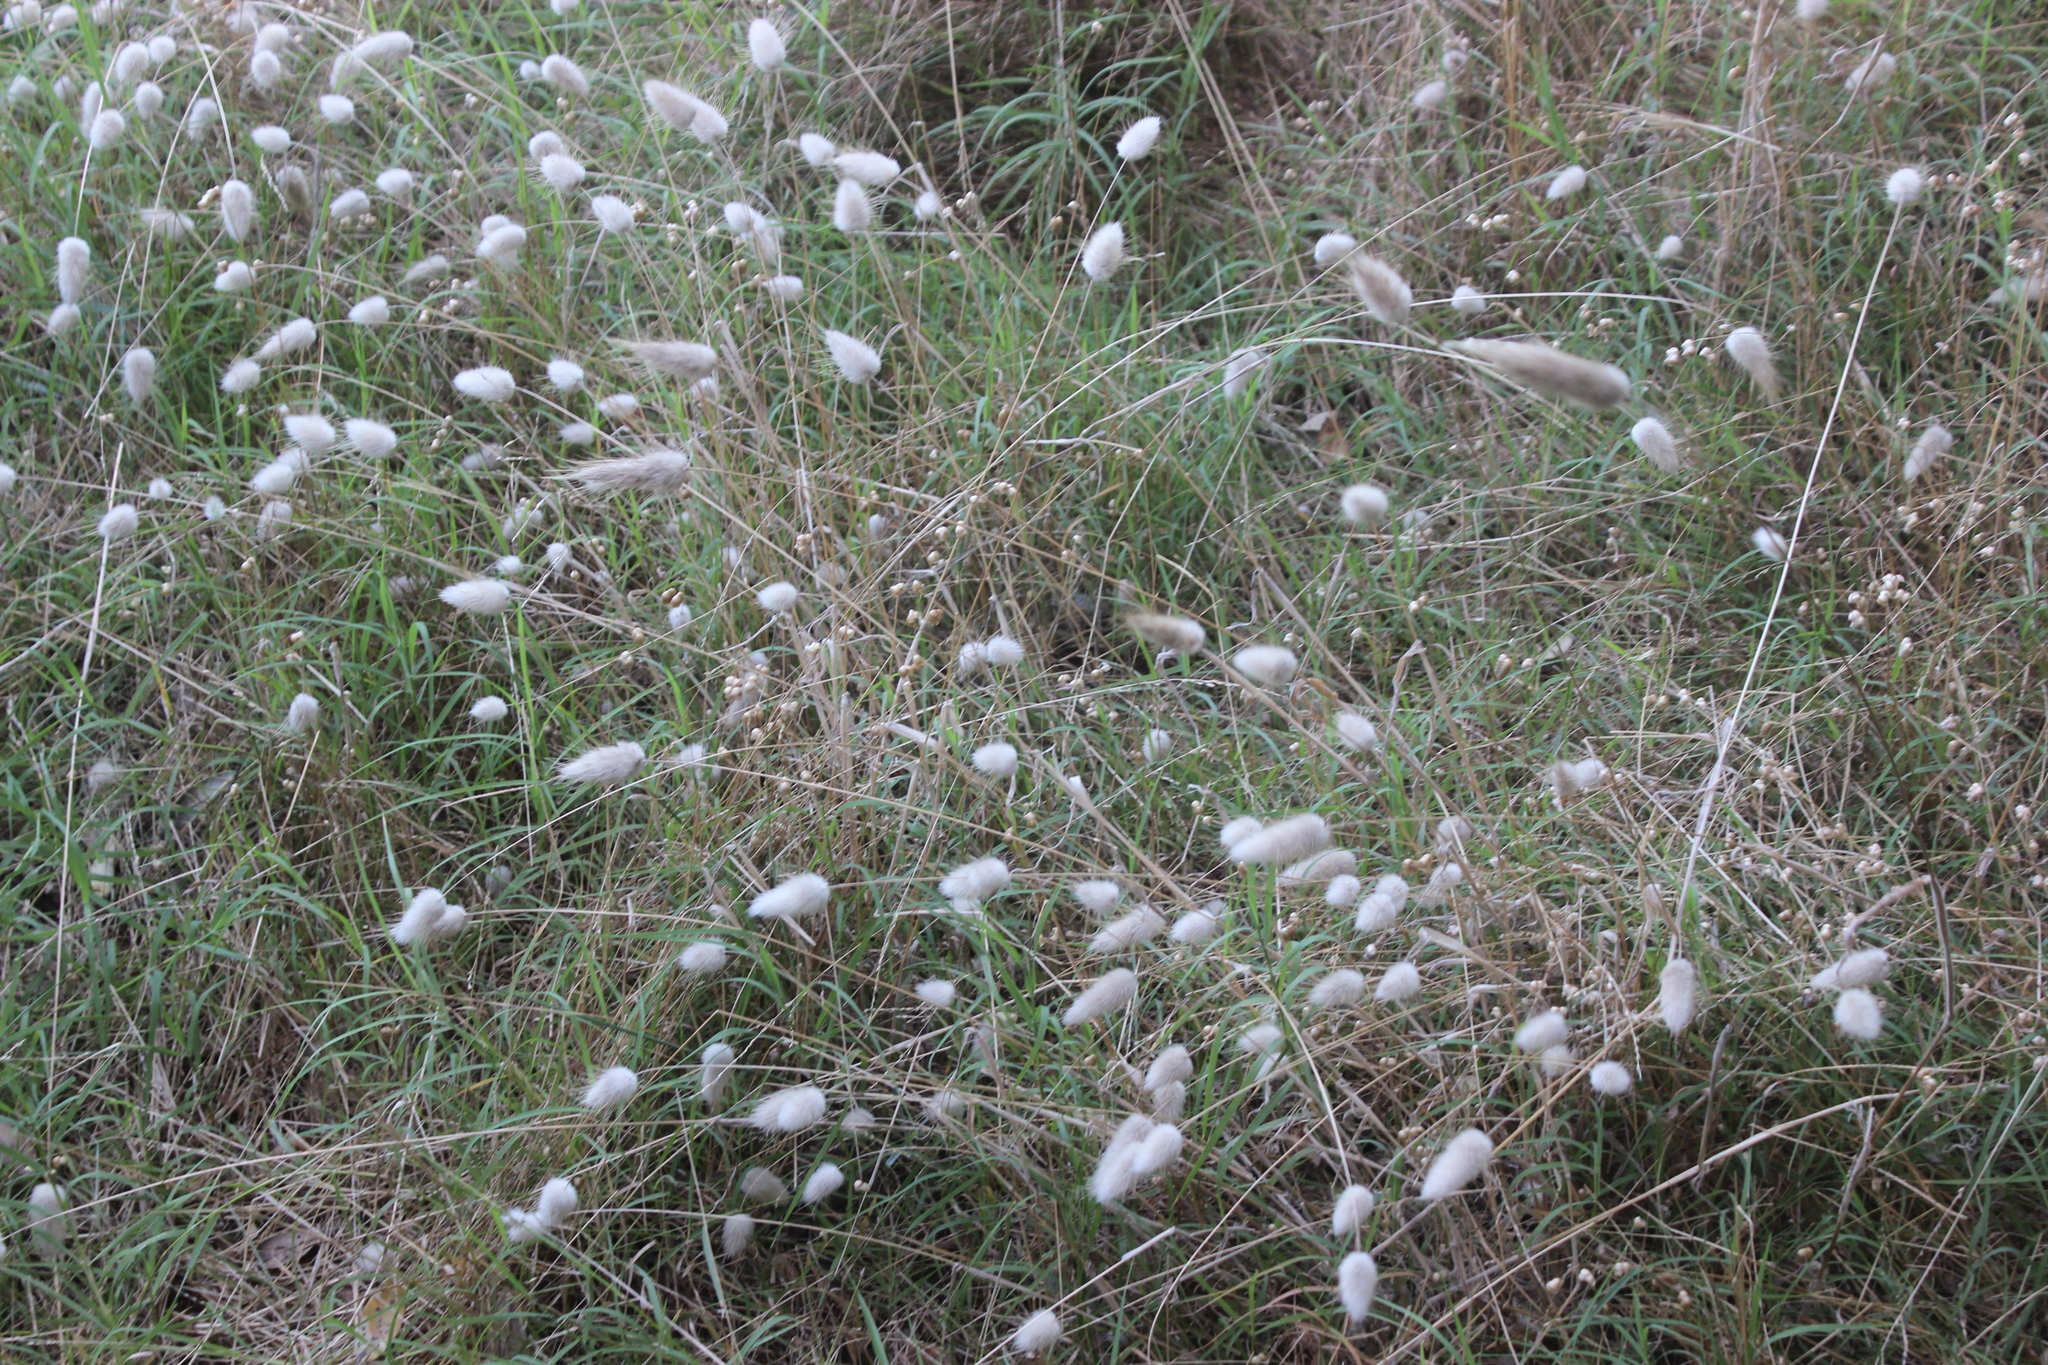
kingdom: Plantae
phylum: Tracheophyta
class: Liliopsida
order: Poales
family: Poaceae
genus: Lagurus
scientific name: Lagurus ovatus
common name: Hare's-tail
